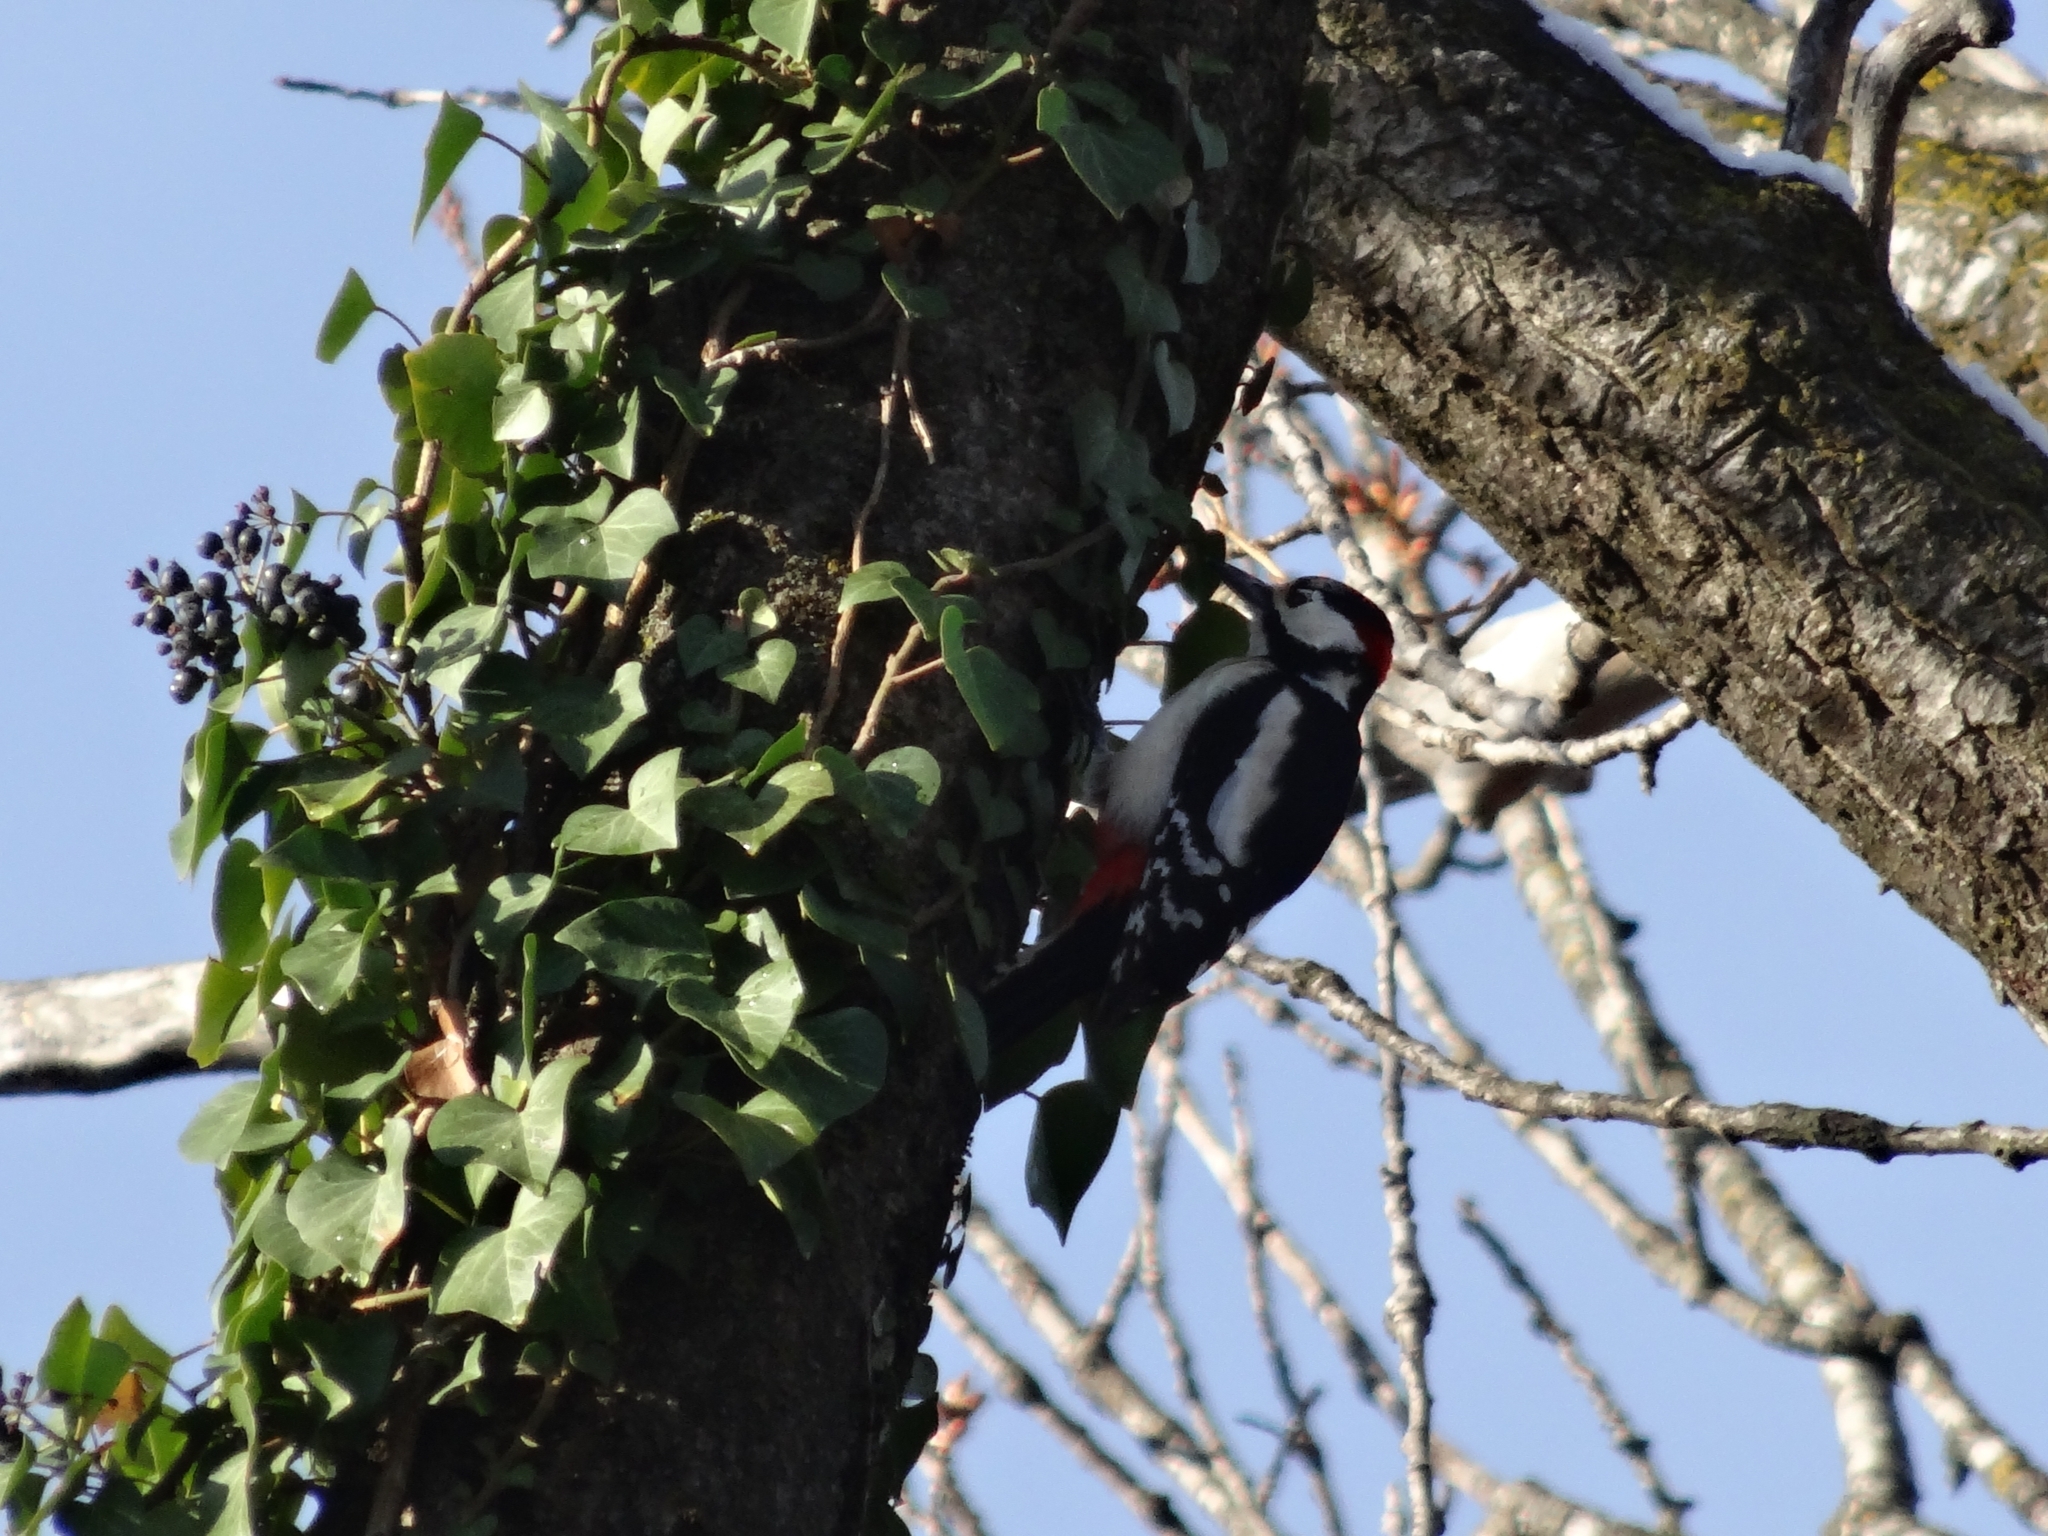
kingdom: Animalia
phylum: Chordata
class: Aves
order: Piciformes
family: Picidae
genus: Dendrocopos
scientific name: Dendrocopos major
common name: Great spotted woodpecker
